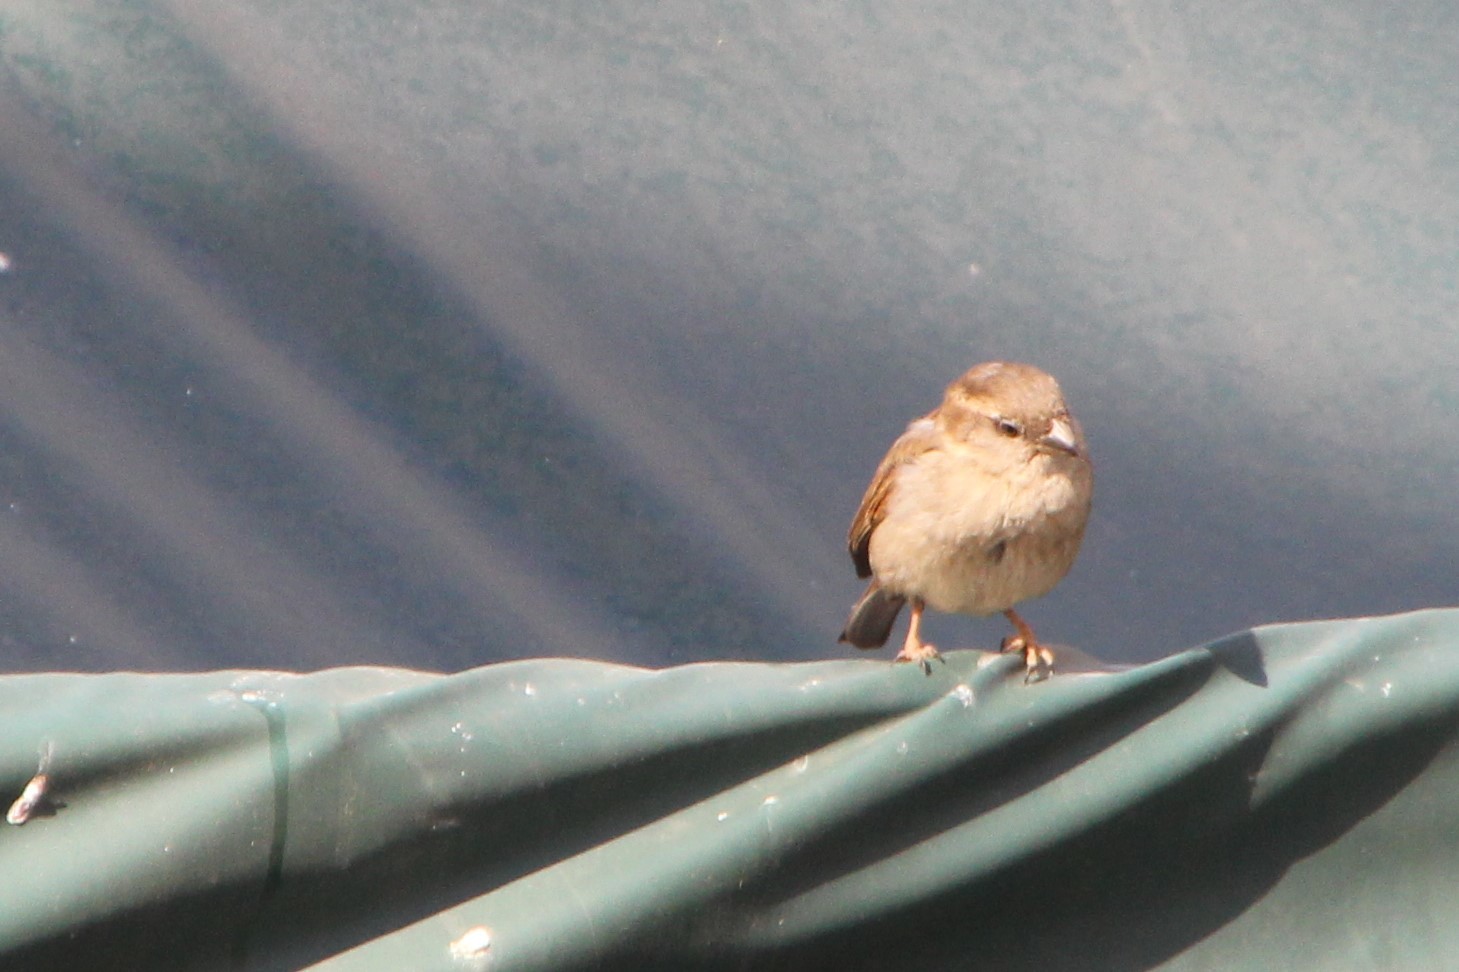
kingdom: Animalia
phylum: Chordata
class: Aves
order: Passeriformes
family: Passeridae
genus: Passer
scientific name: Passer domesticus
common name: House sparrow
